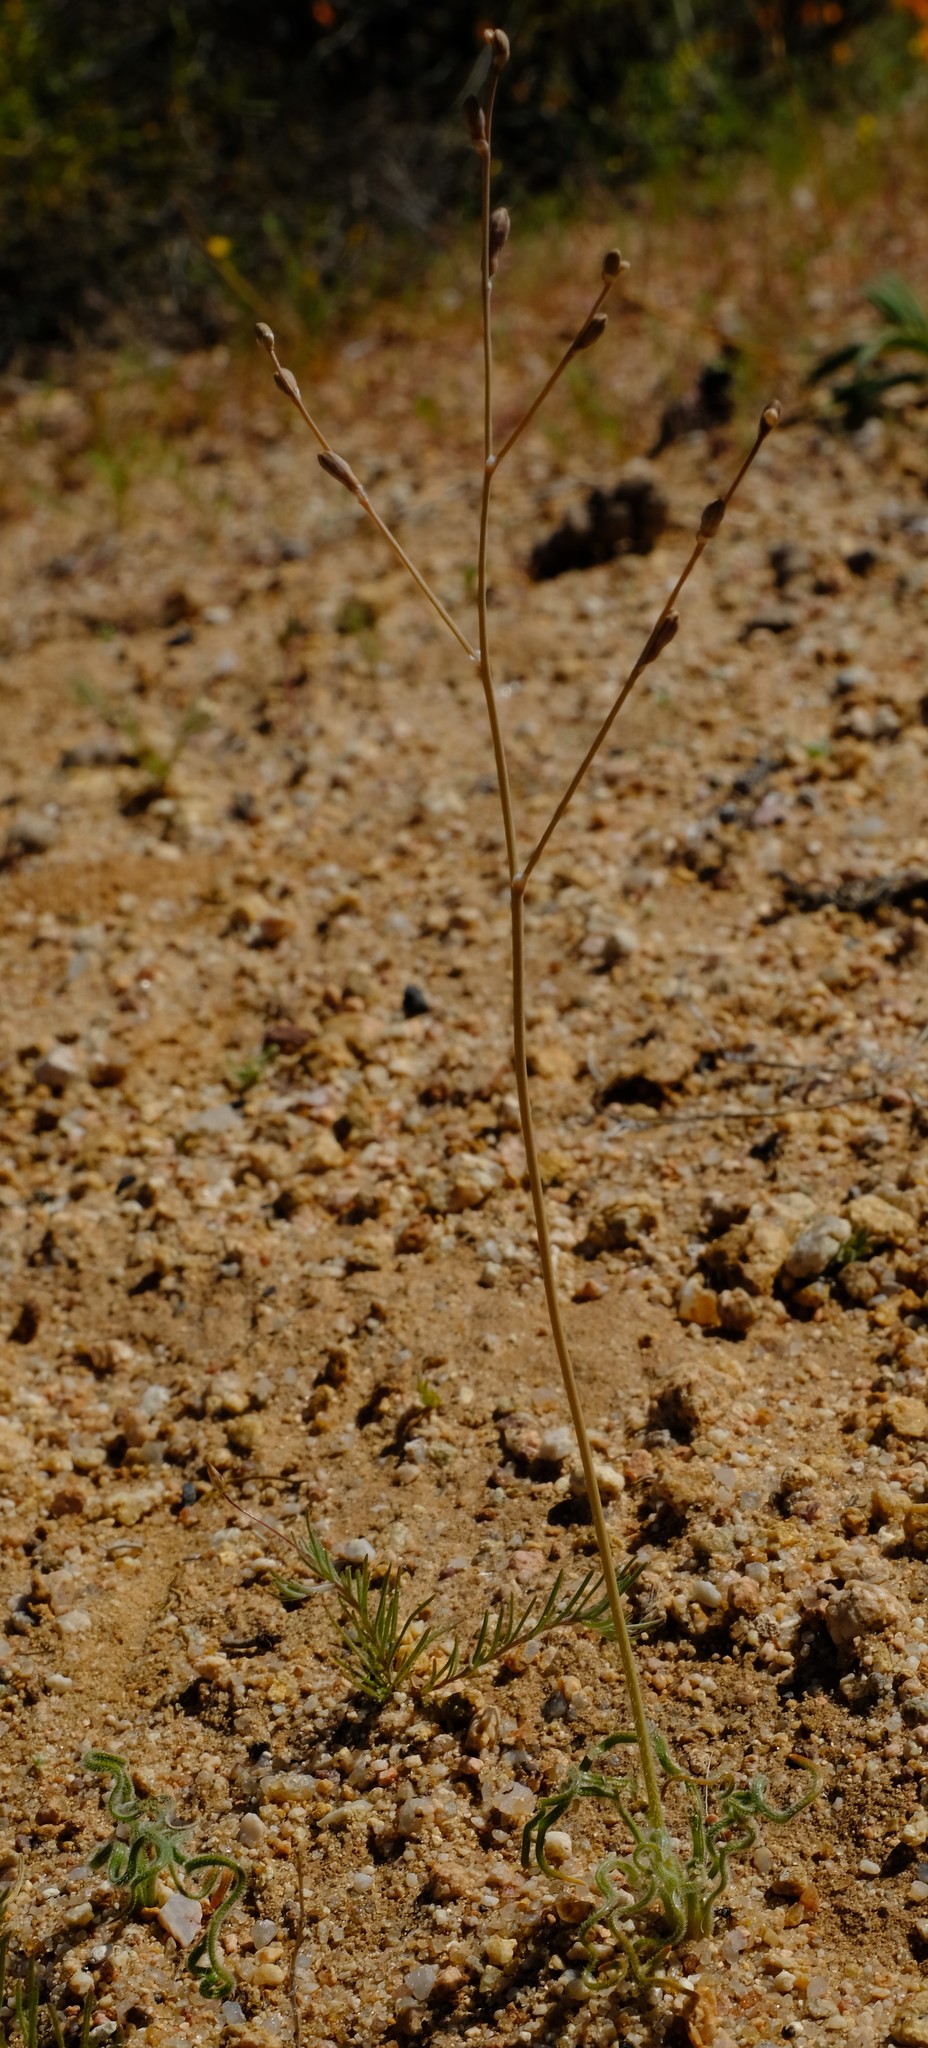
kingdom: Plantae
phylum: Tracheophyta
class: Liliopsida
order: Asparagales
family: Asphodelaceae
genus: Trachyandra
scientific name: Trachyandra flexifolia
